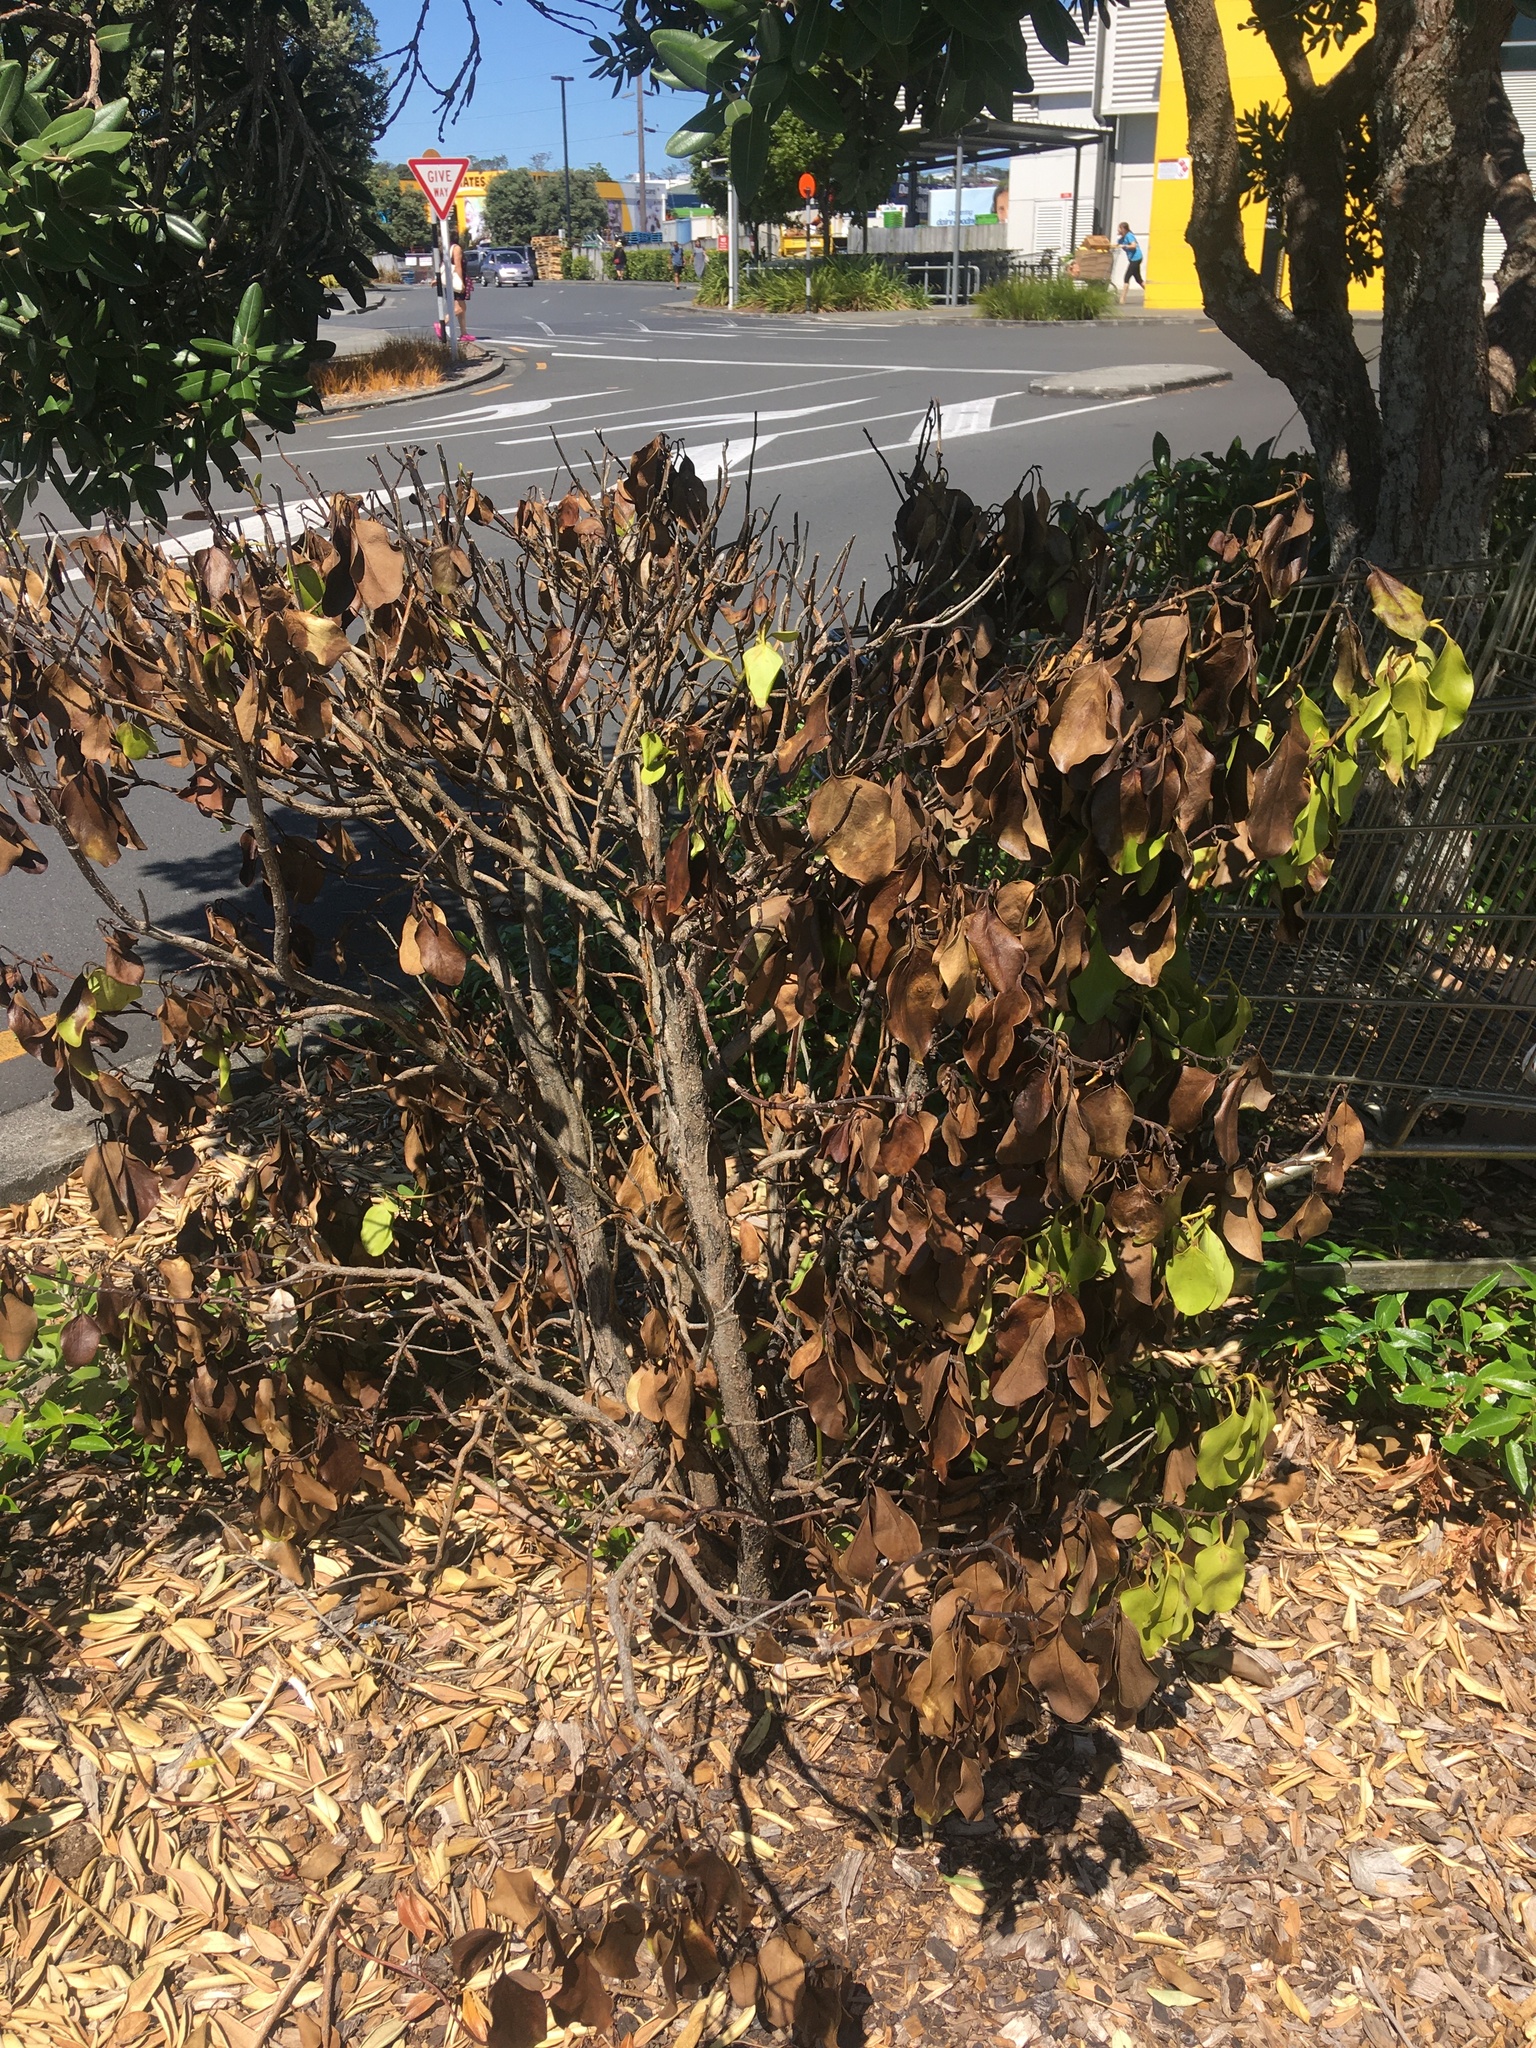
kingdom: Plantae
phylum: Tracheophyta
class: Magnoliopsida
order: Apiales
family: Griseliniaceae
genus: Griselinia
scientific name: Griselinia littoralis
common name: New zealand broadleaf
